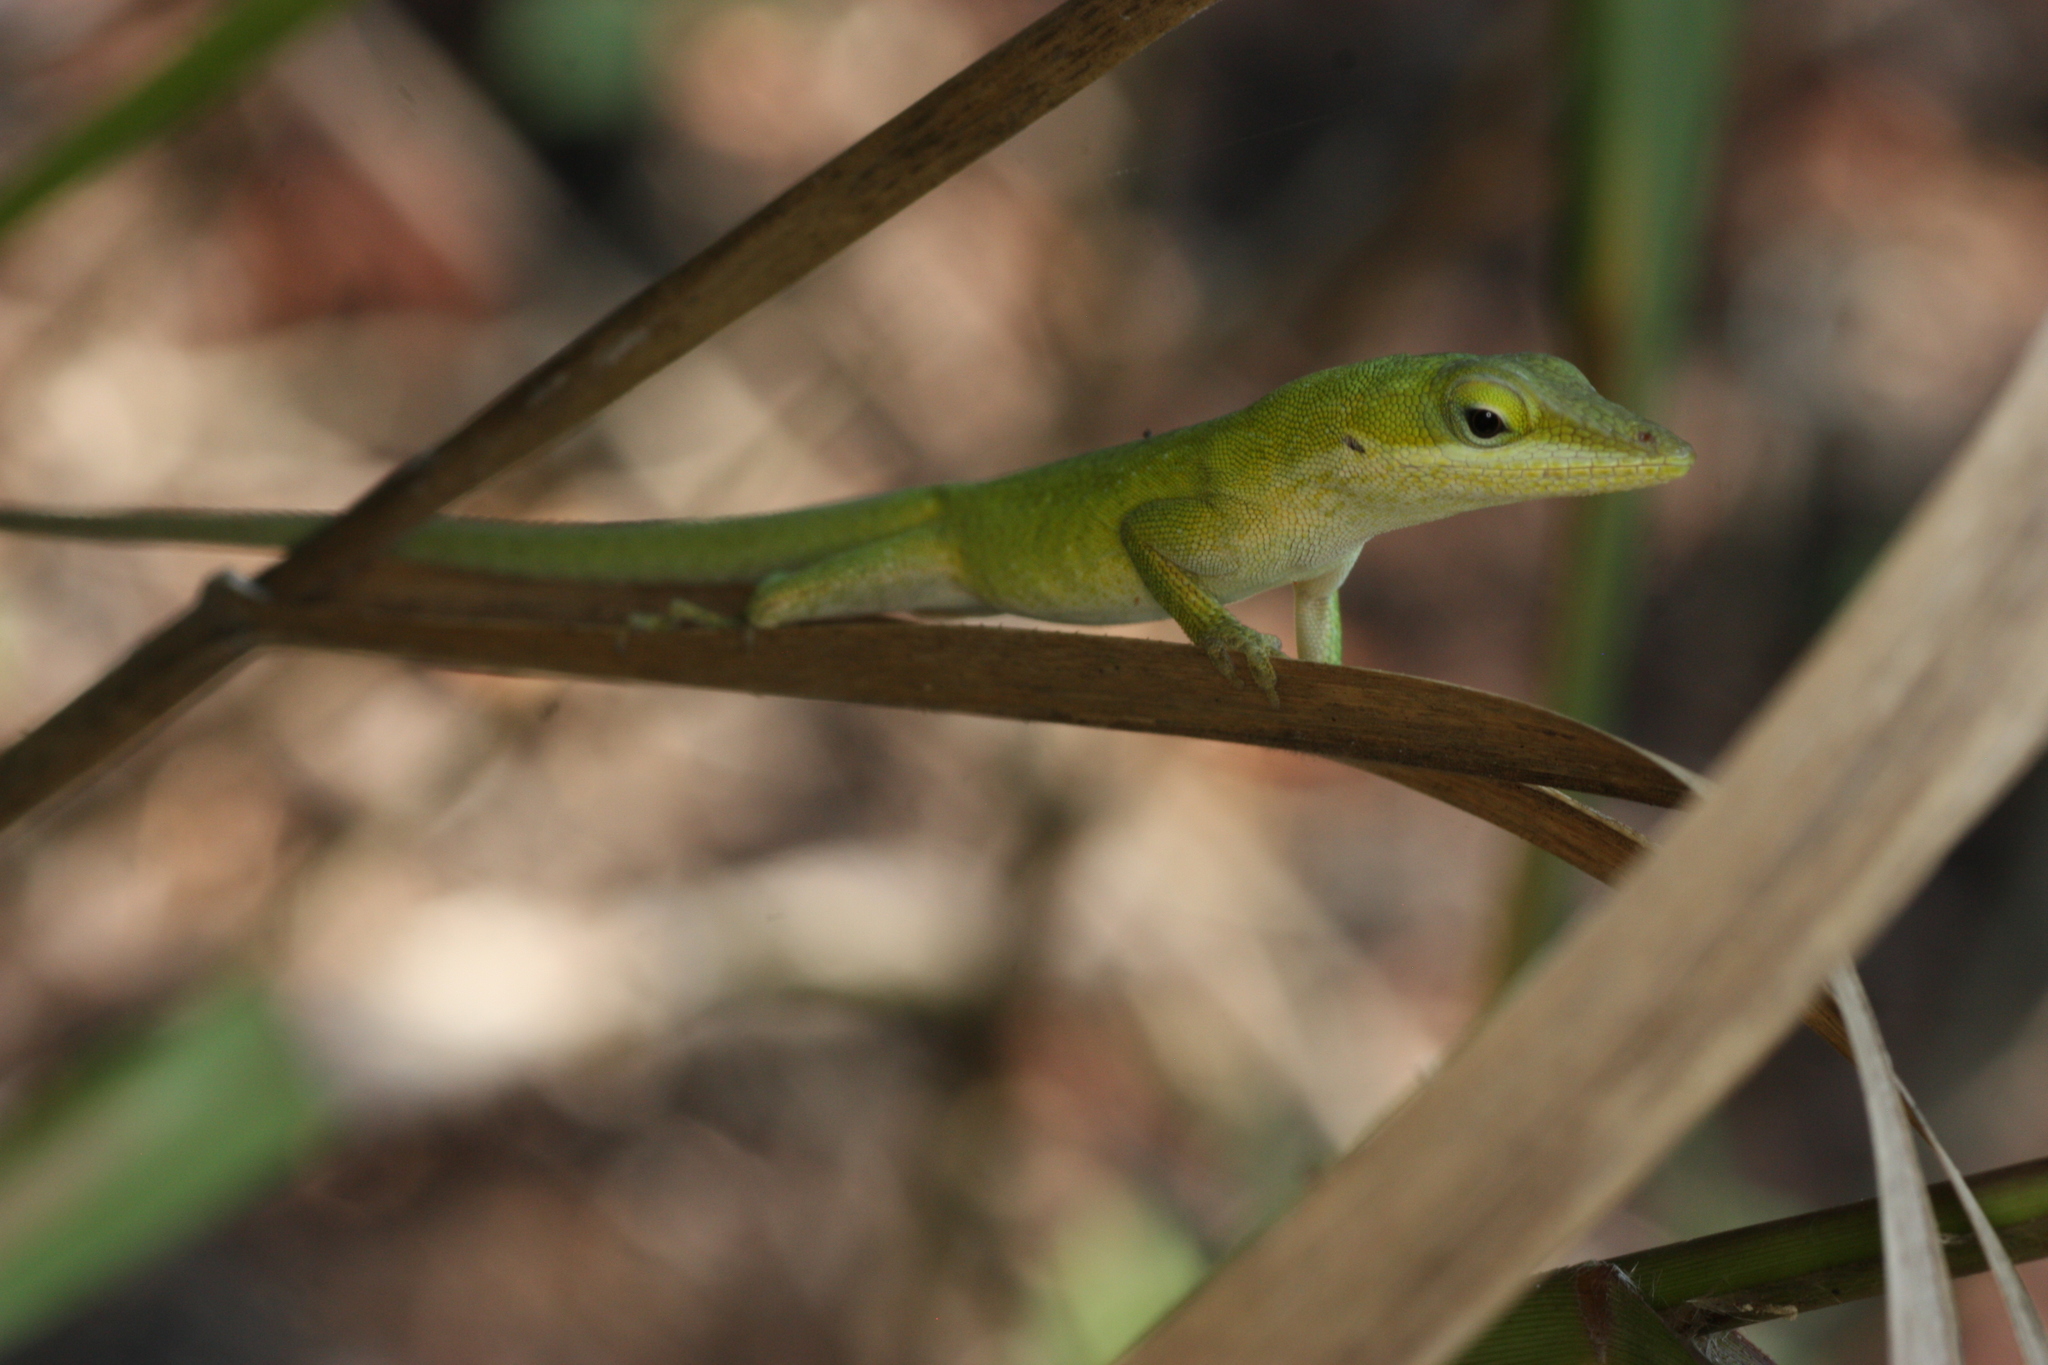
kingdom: Animalia
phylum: Chordata
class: Squamata
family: Dactyloidae
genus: Anolis
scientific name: Anolis carolinensis
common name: Green anole
